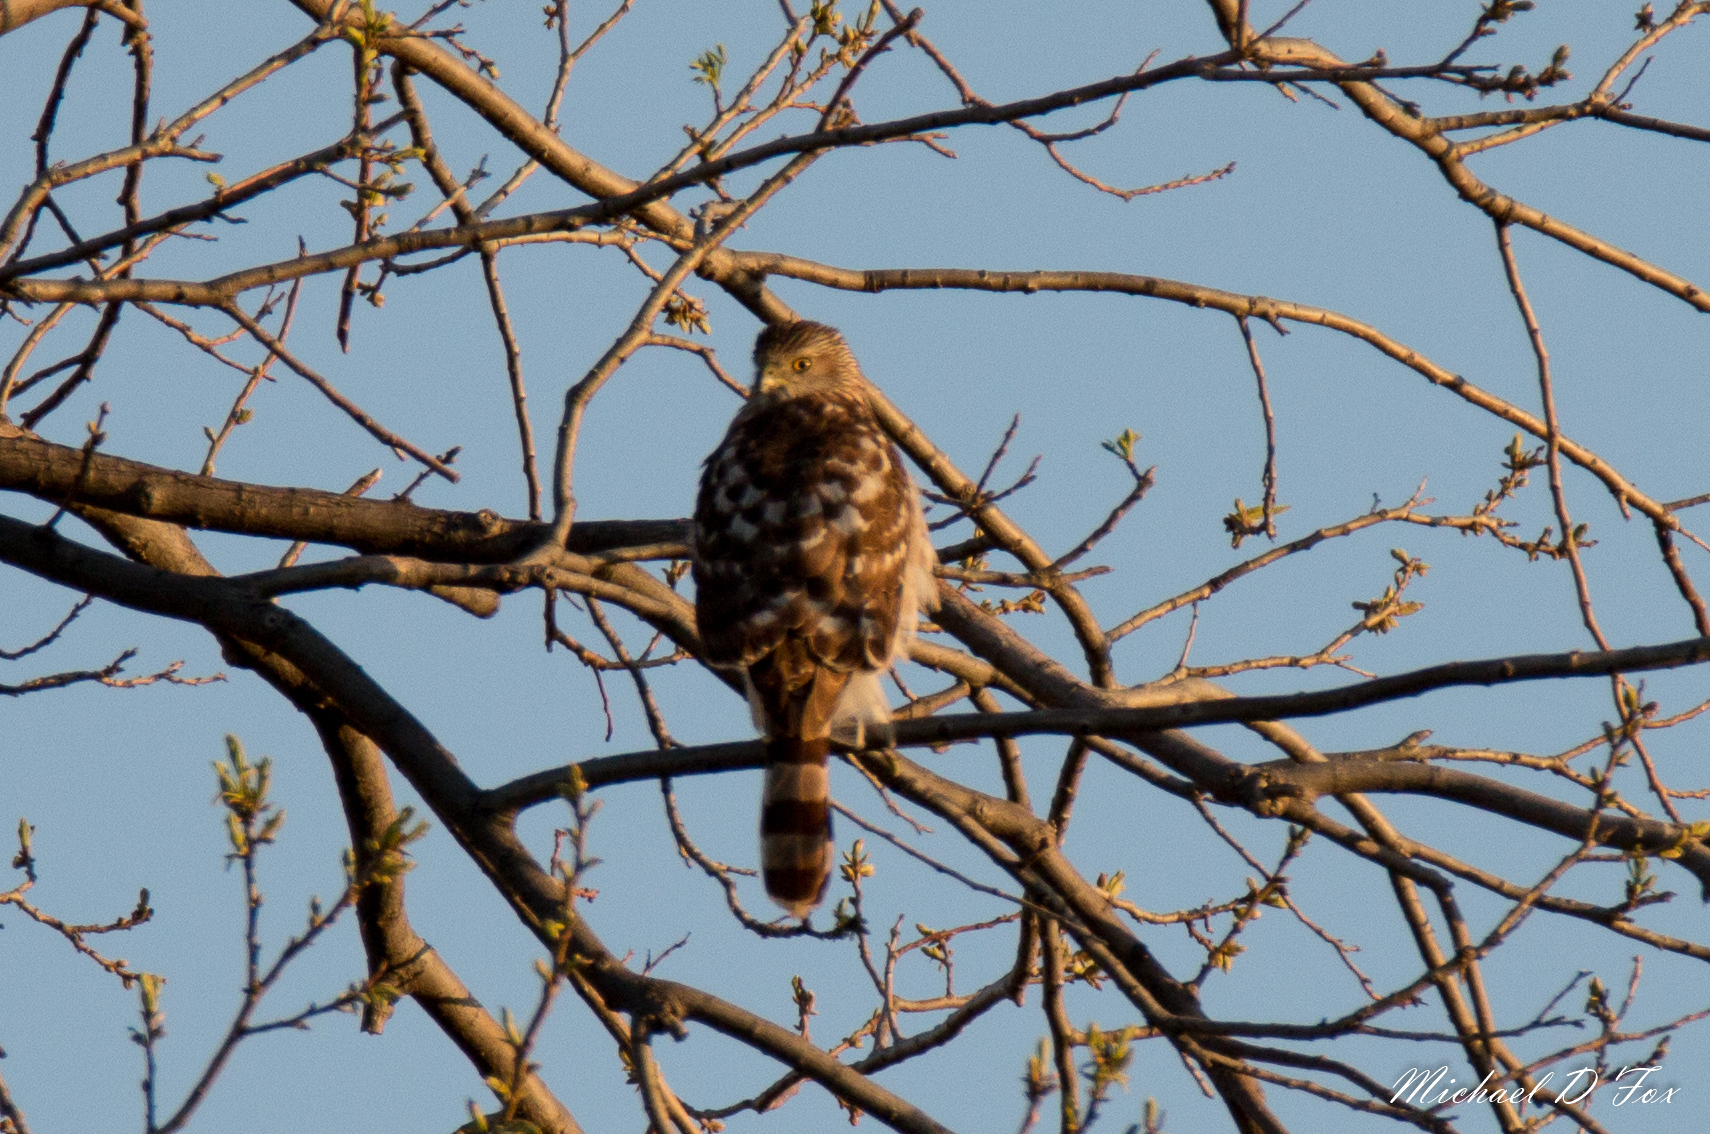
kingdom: Animalia
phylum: Chordata
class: Aves
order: Accipitriformes
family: Accipitridae
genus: Accipiter
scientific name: Accipiter cooperii
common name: Cooper's hawk
